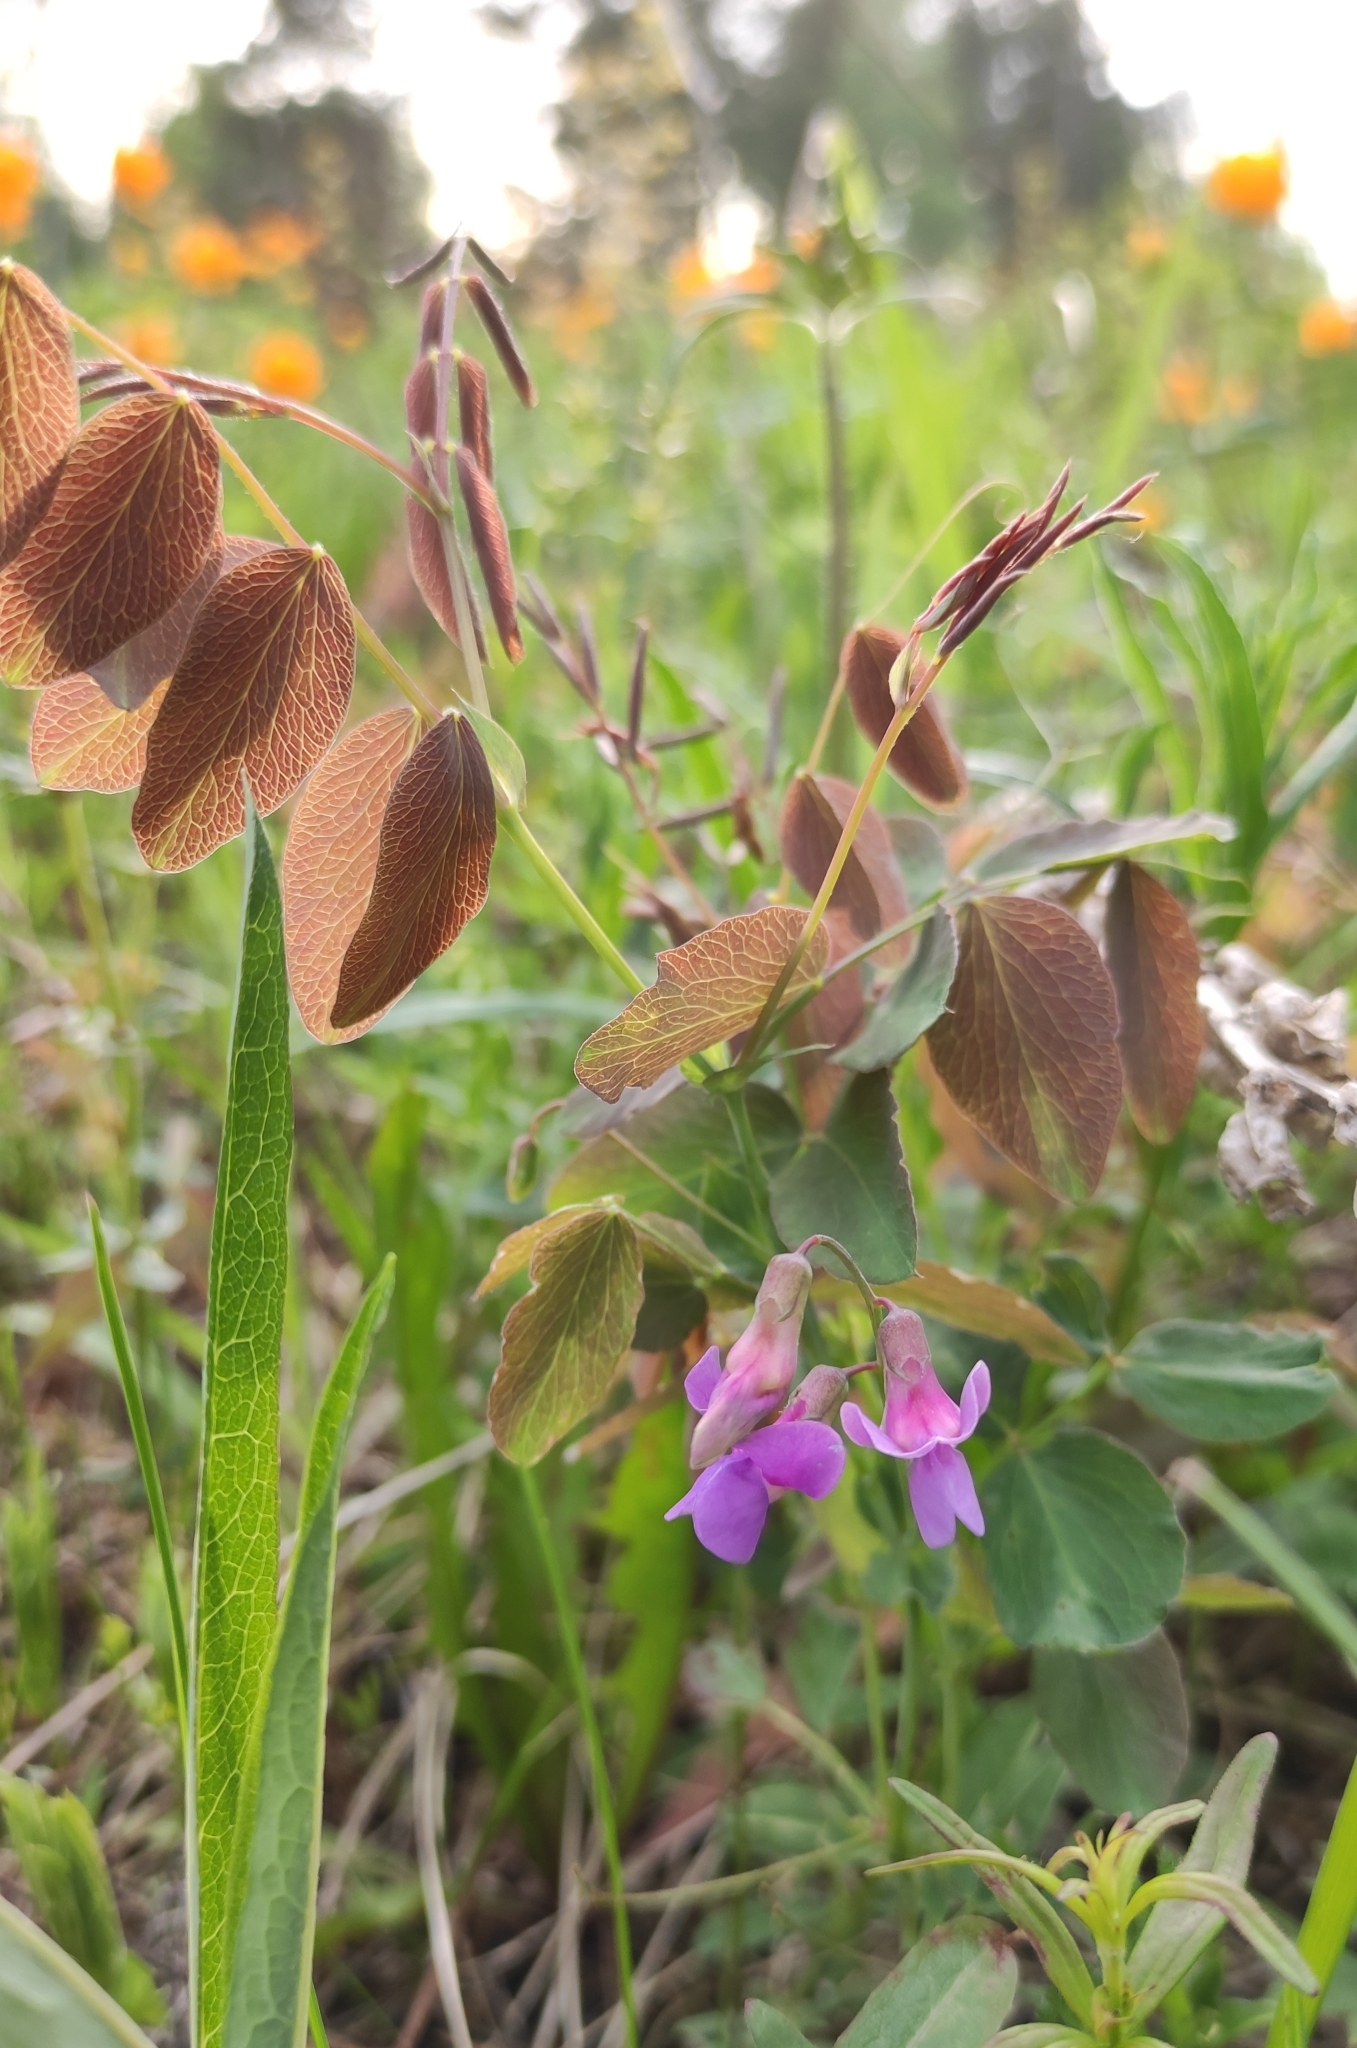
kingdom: Plantae
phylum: Tracheophyta
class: Magnoliopsida
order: Fabales
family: Fabaceae
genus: Lathyrus
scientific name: Lathyrus humilis
